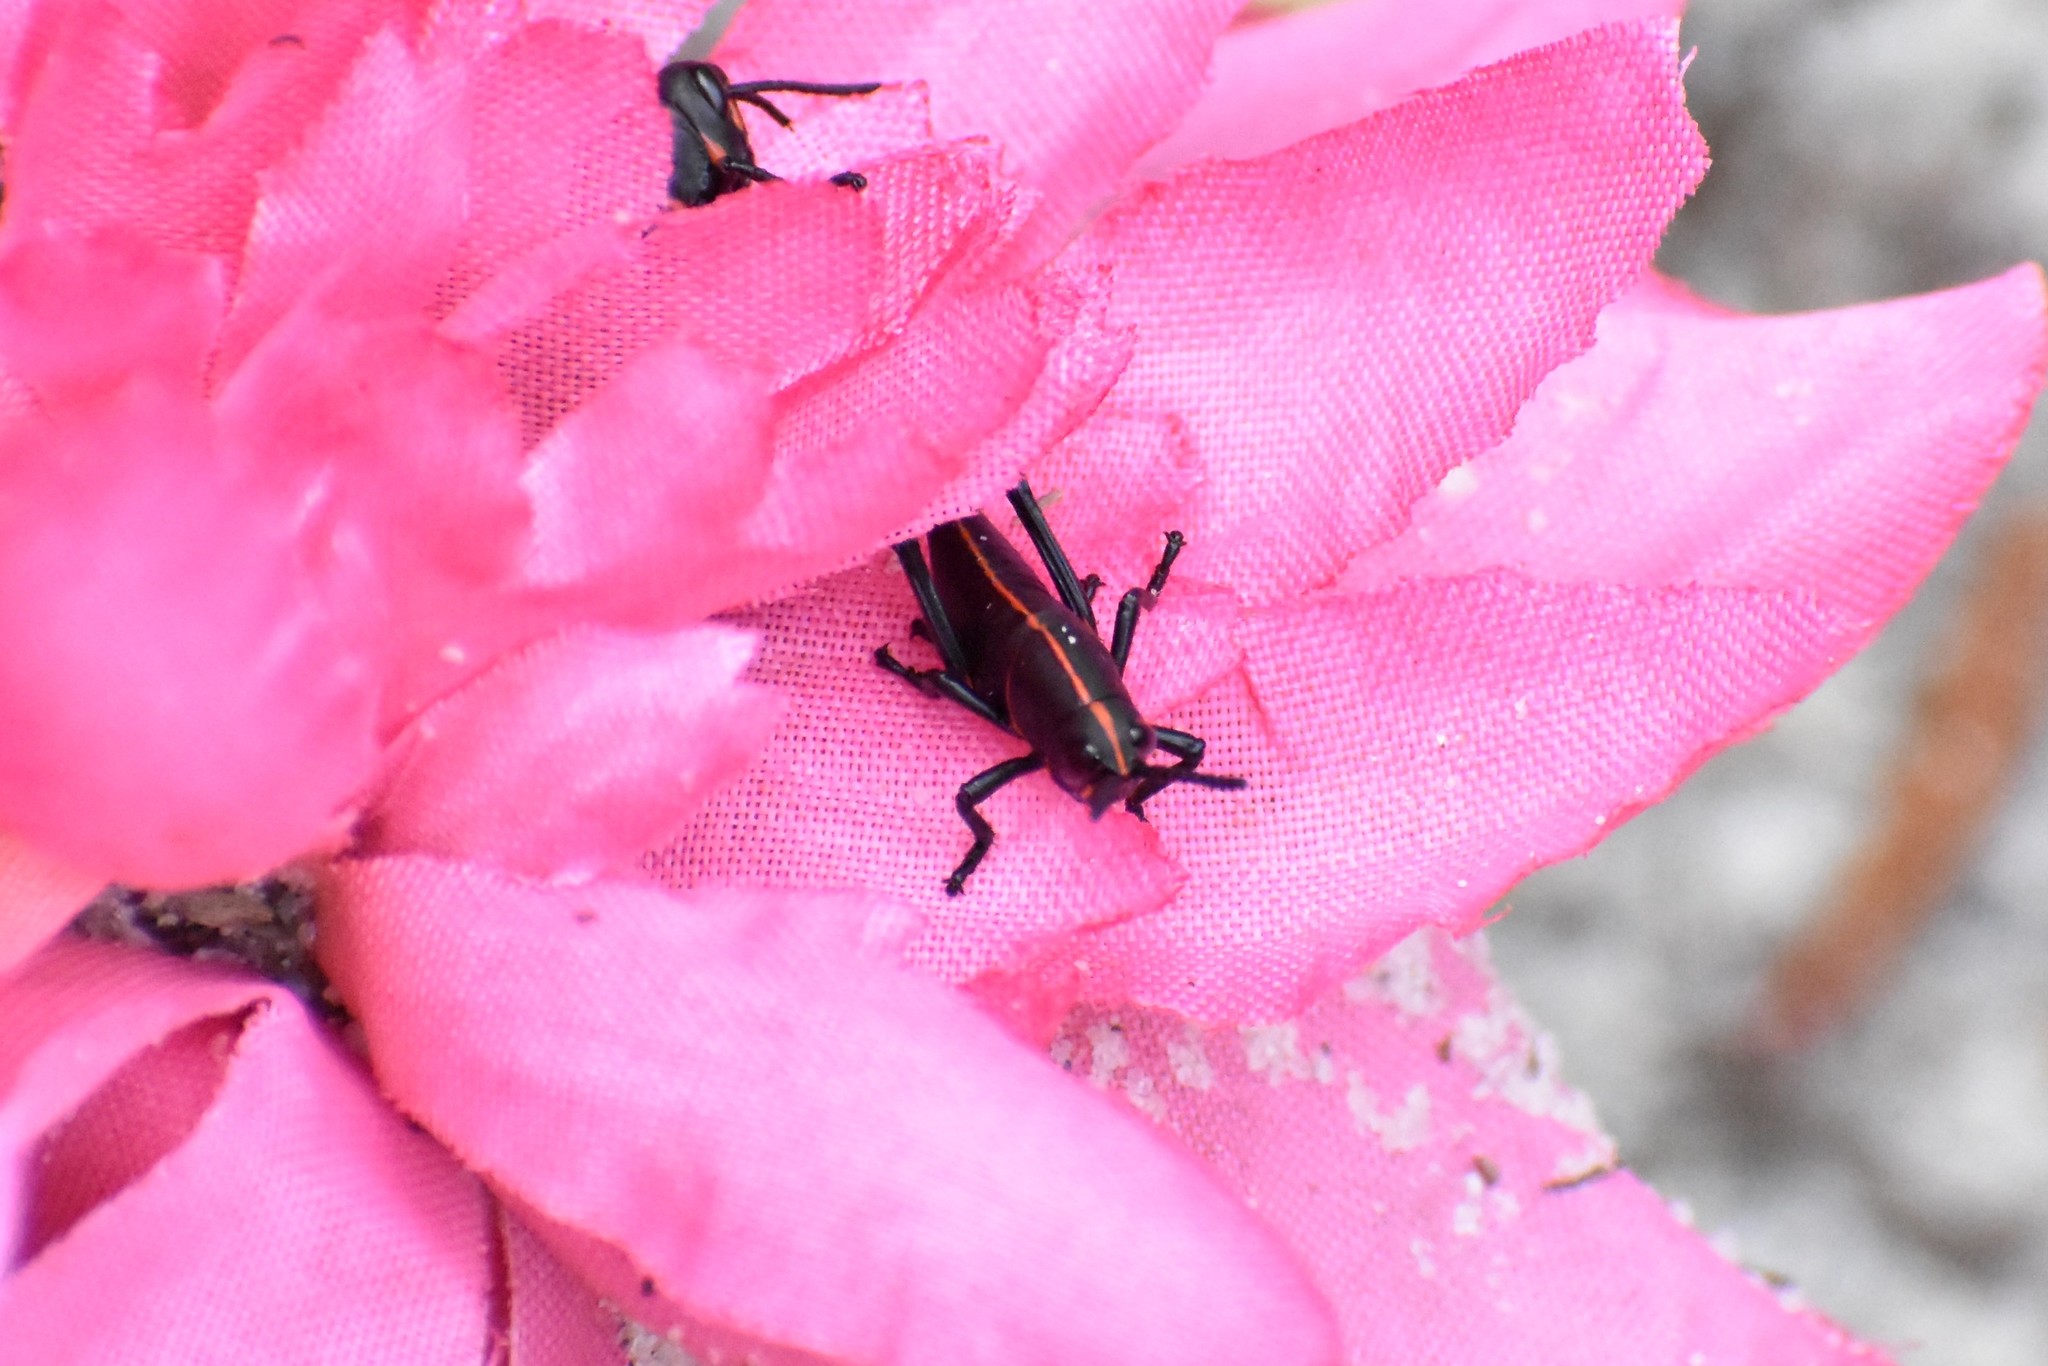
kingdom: Animalia
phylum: Arthropoda
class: Insecta
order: Orthoptera
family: Romaleidae
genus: Romalea
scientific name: Romalea microptera
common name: Eastern lubber grasshopper
